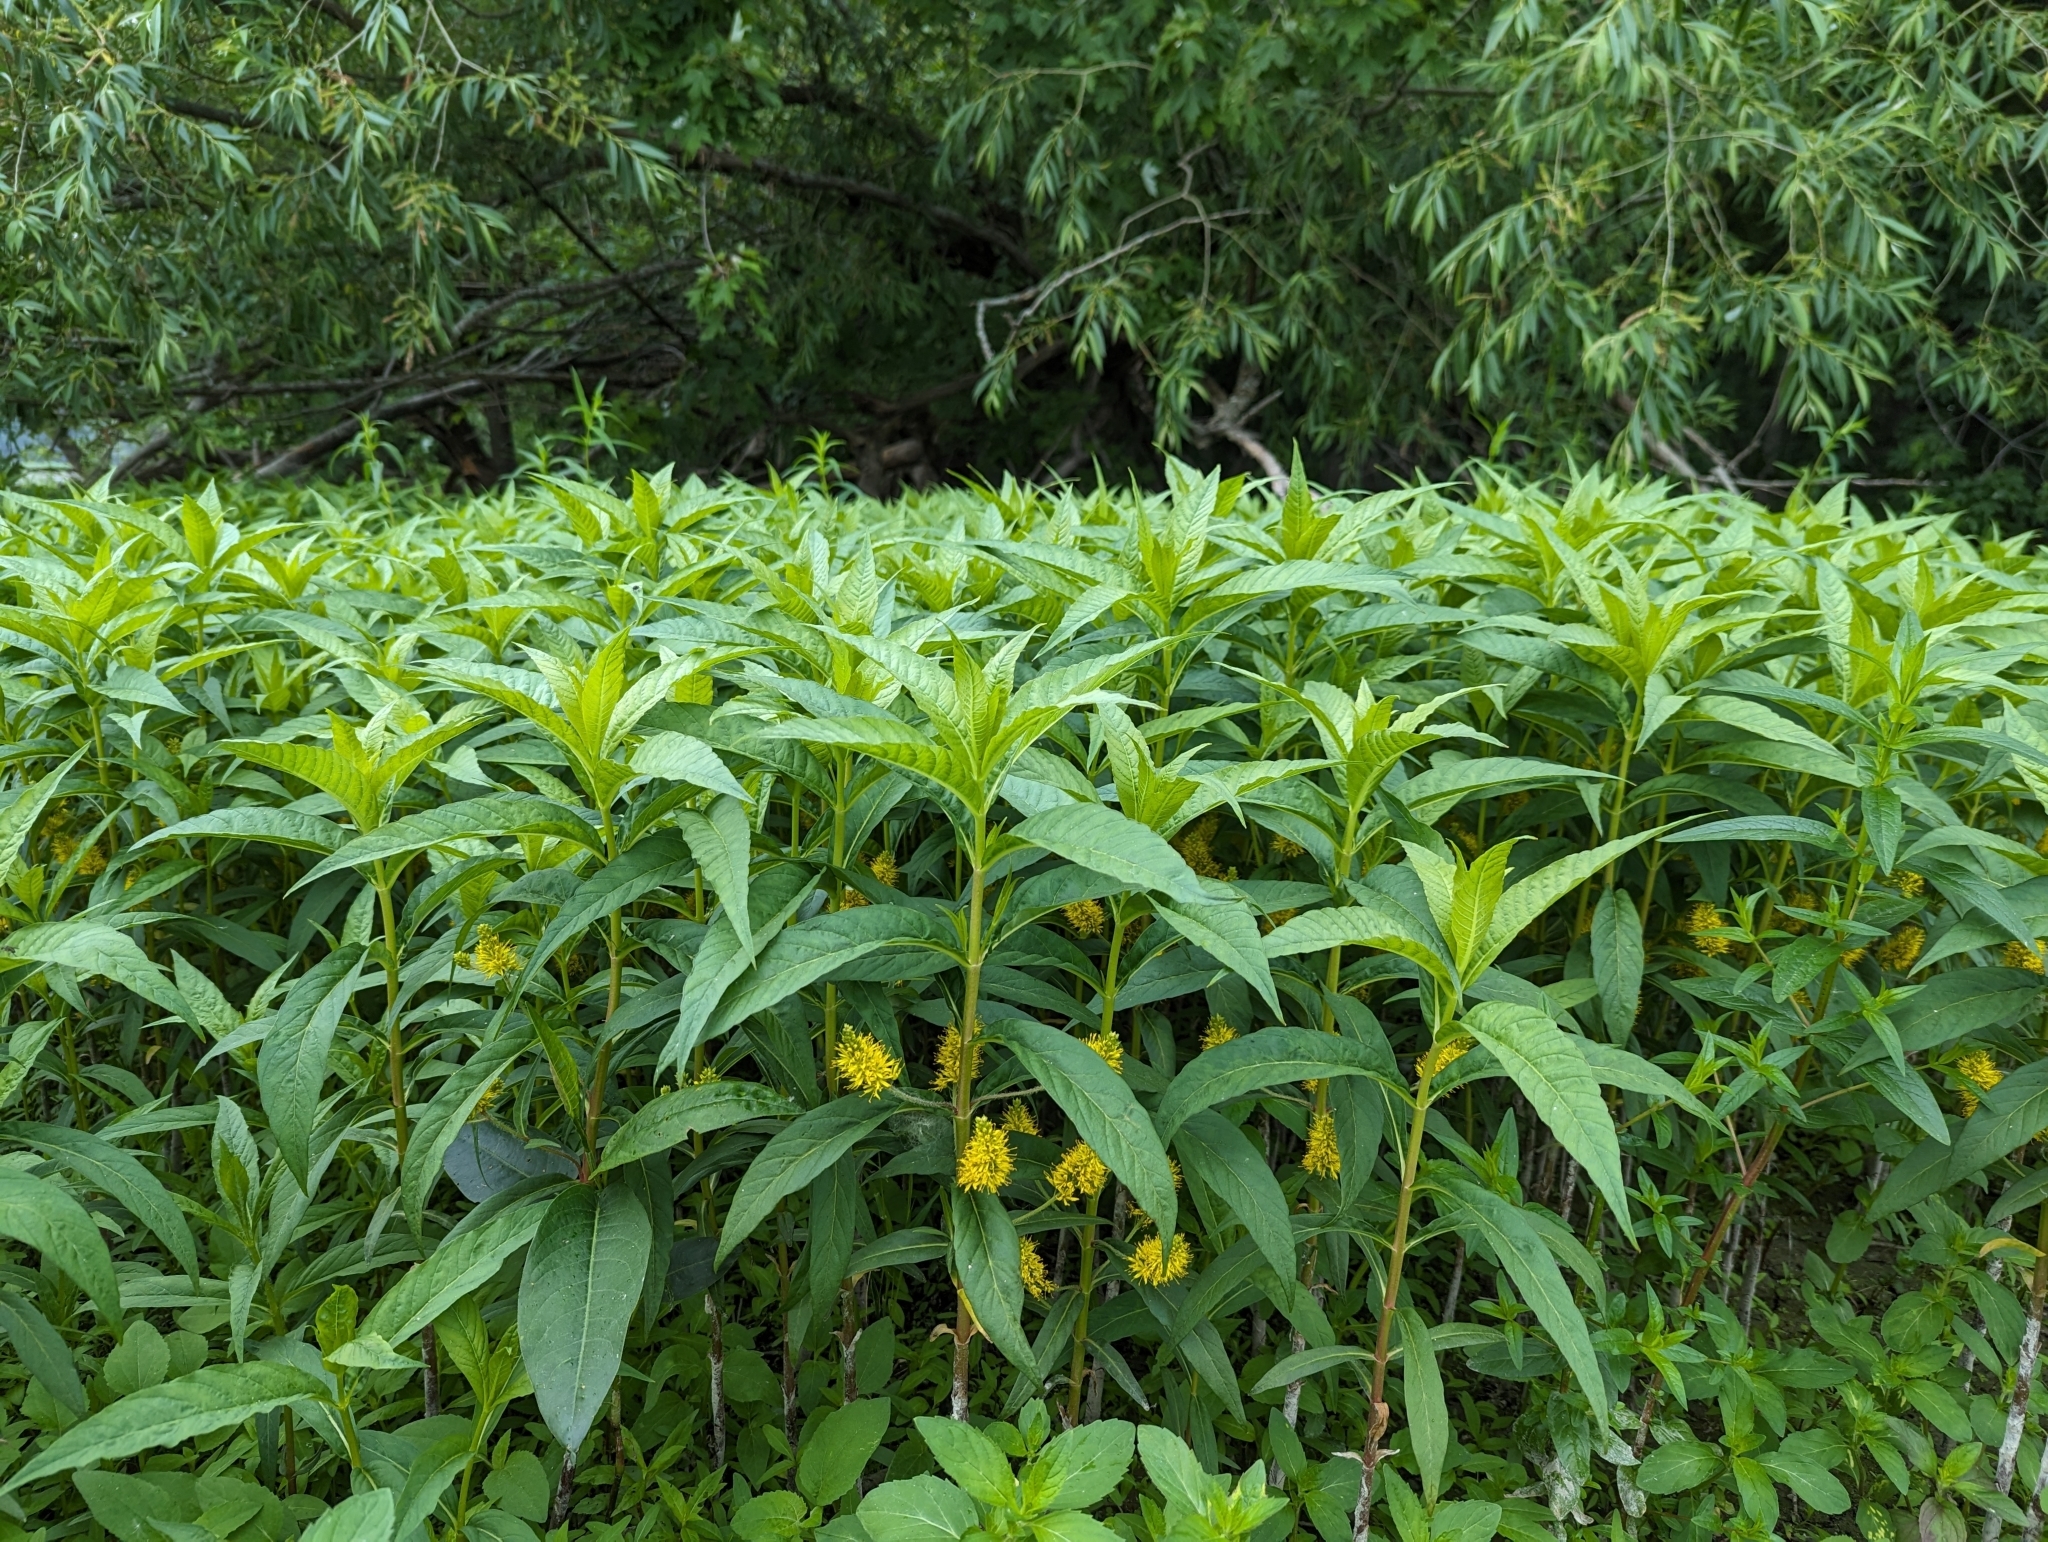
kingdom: Plantae
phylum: Tracheophyta
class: Magnoliopsida
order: Ericales
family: Primulaceae
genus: Lysimachia
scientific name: Lysimachia thyrsiflora
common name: Tufted loosestrife
